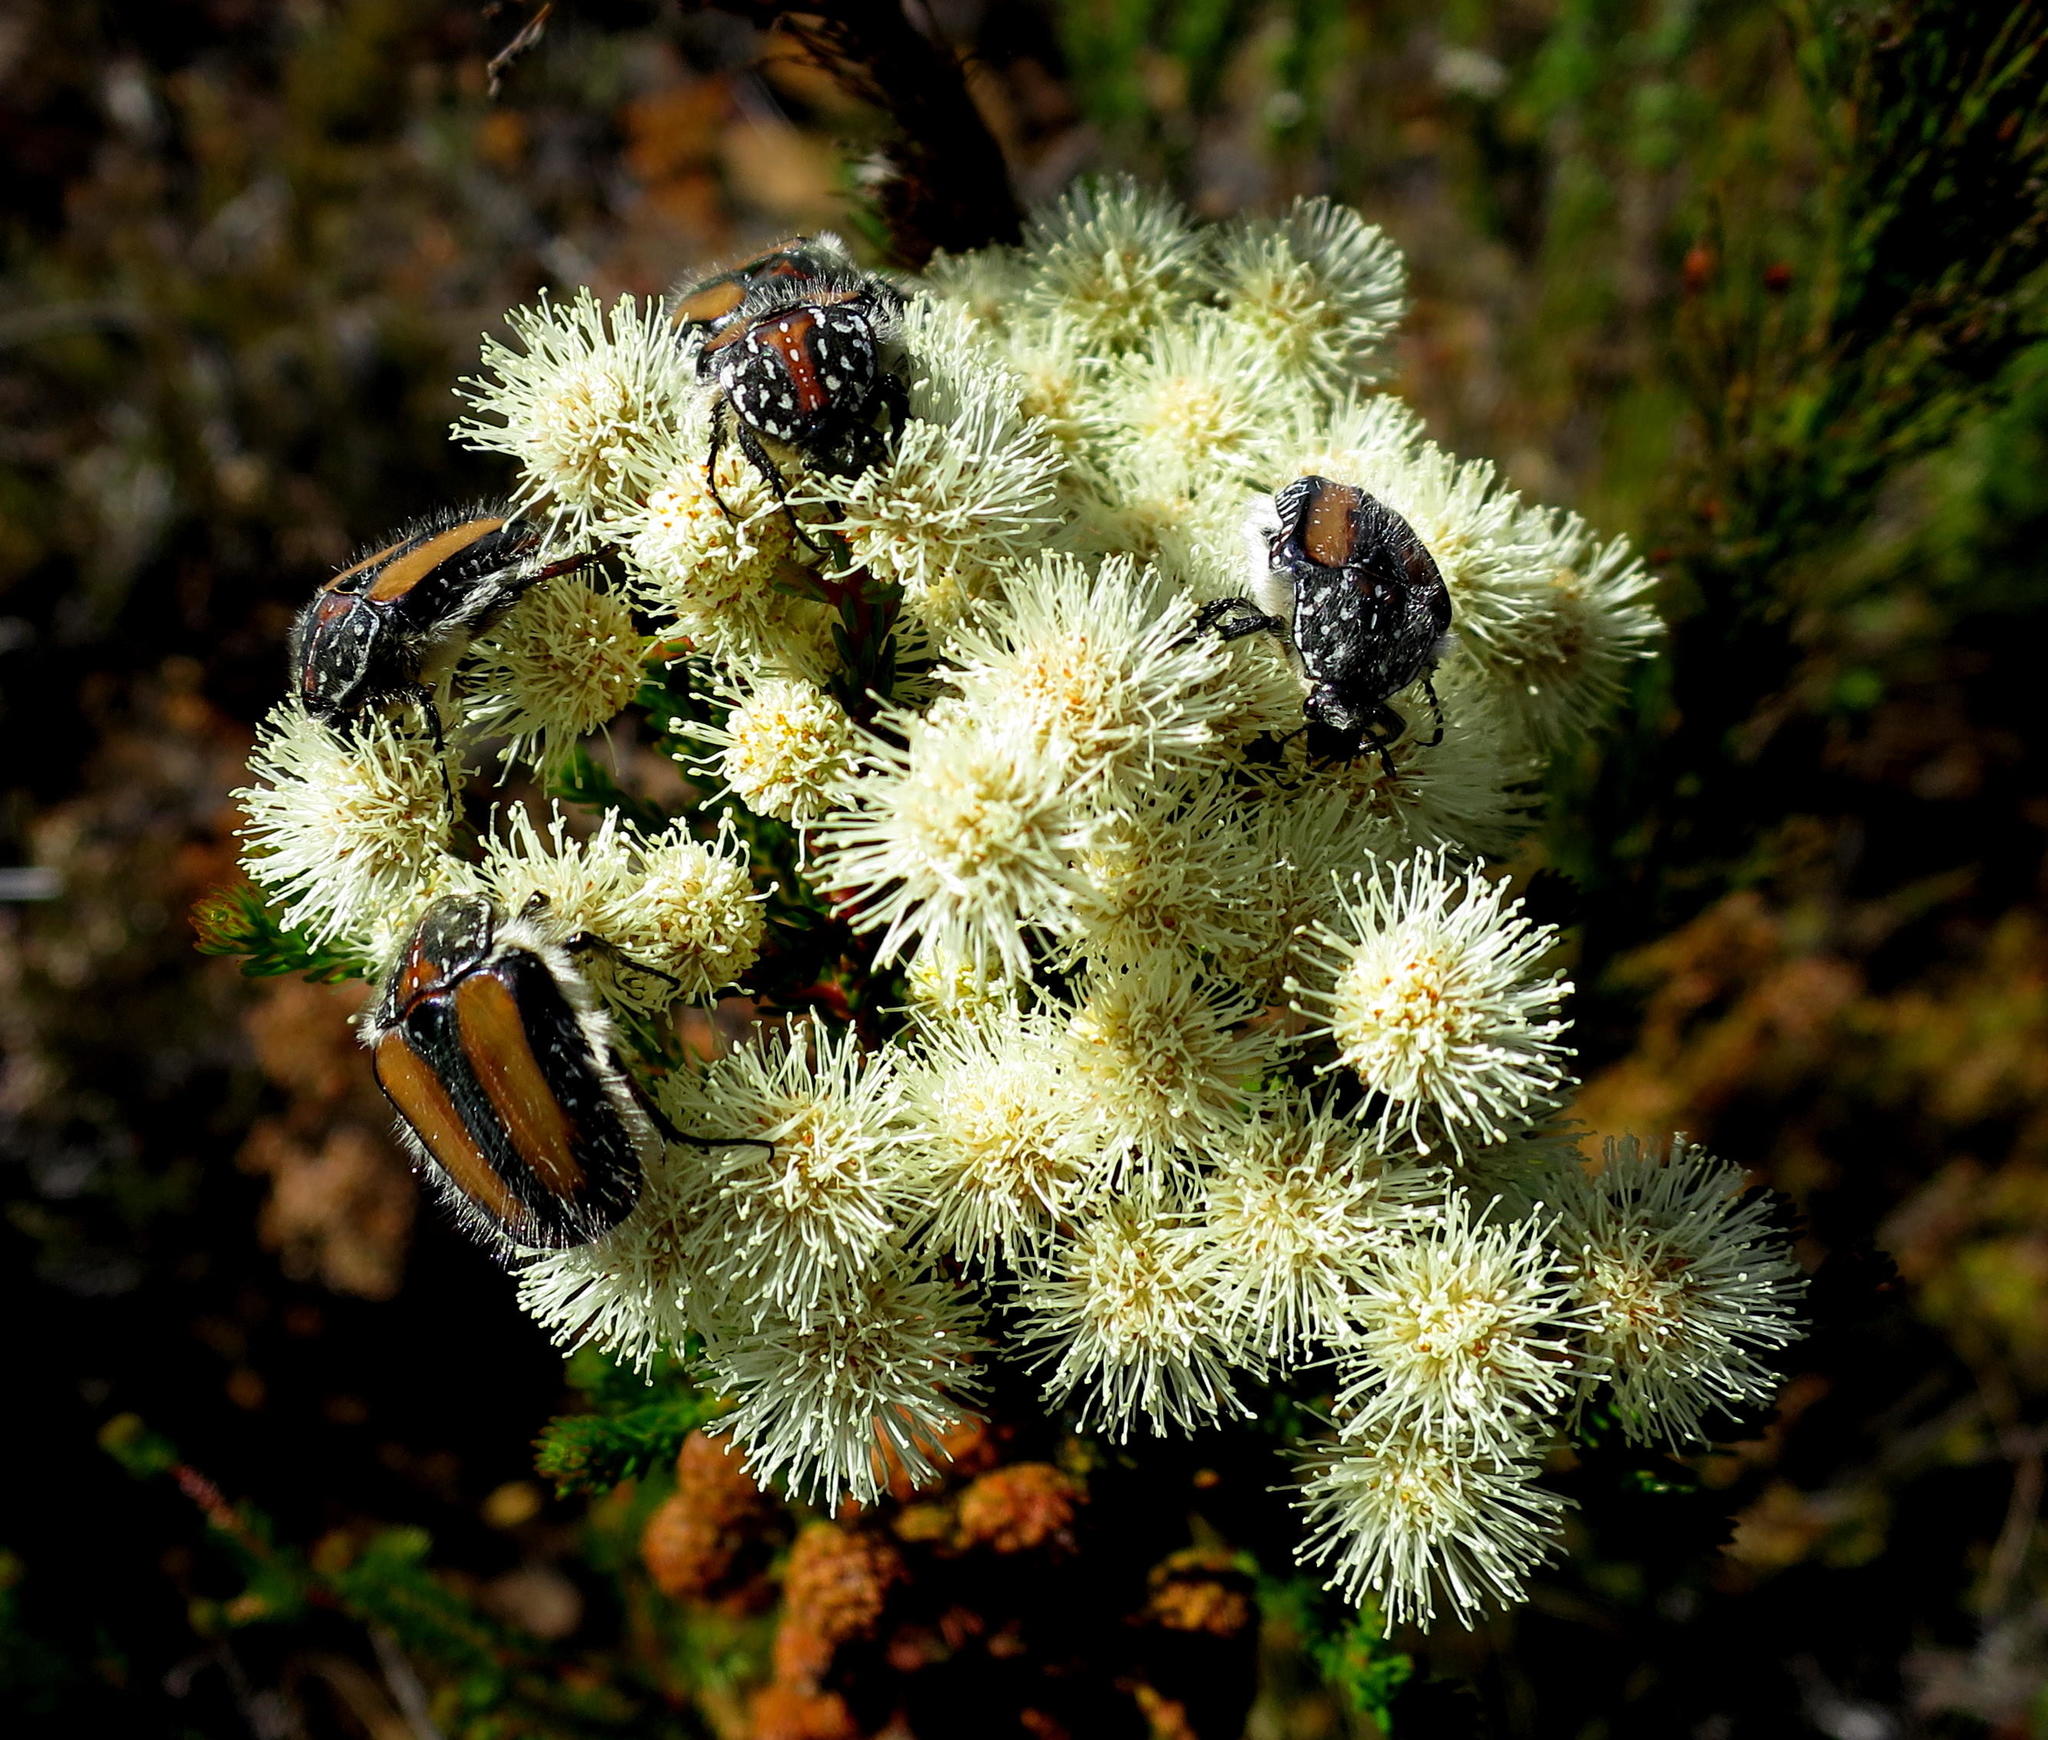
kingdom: Animalia
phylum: Arthropoda
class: Insecta
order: Coleoptera
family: Scarabaeidae
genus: Trichostetha
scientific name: Trichostetha fuscorubra
